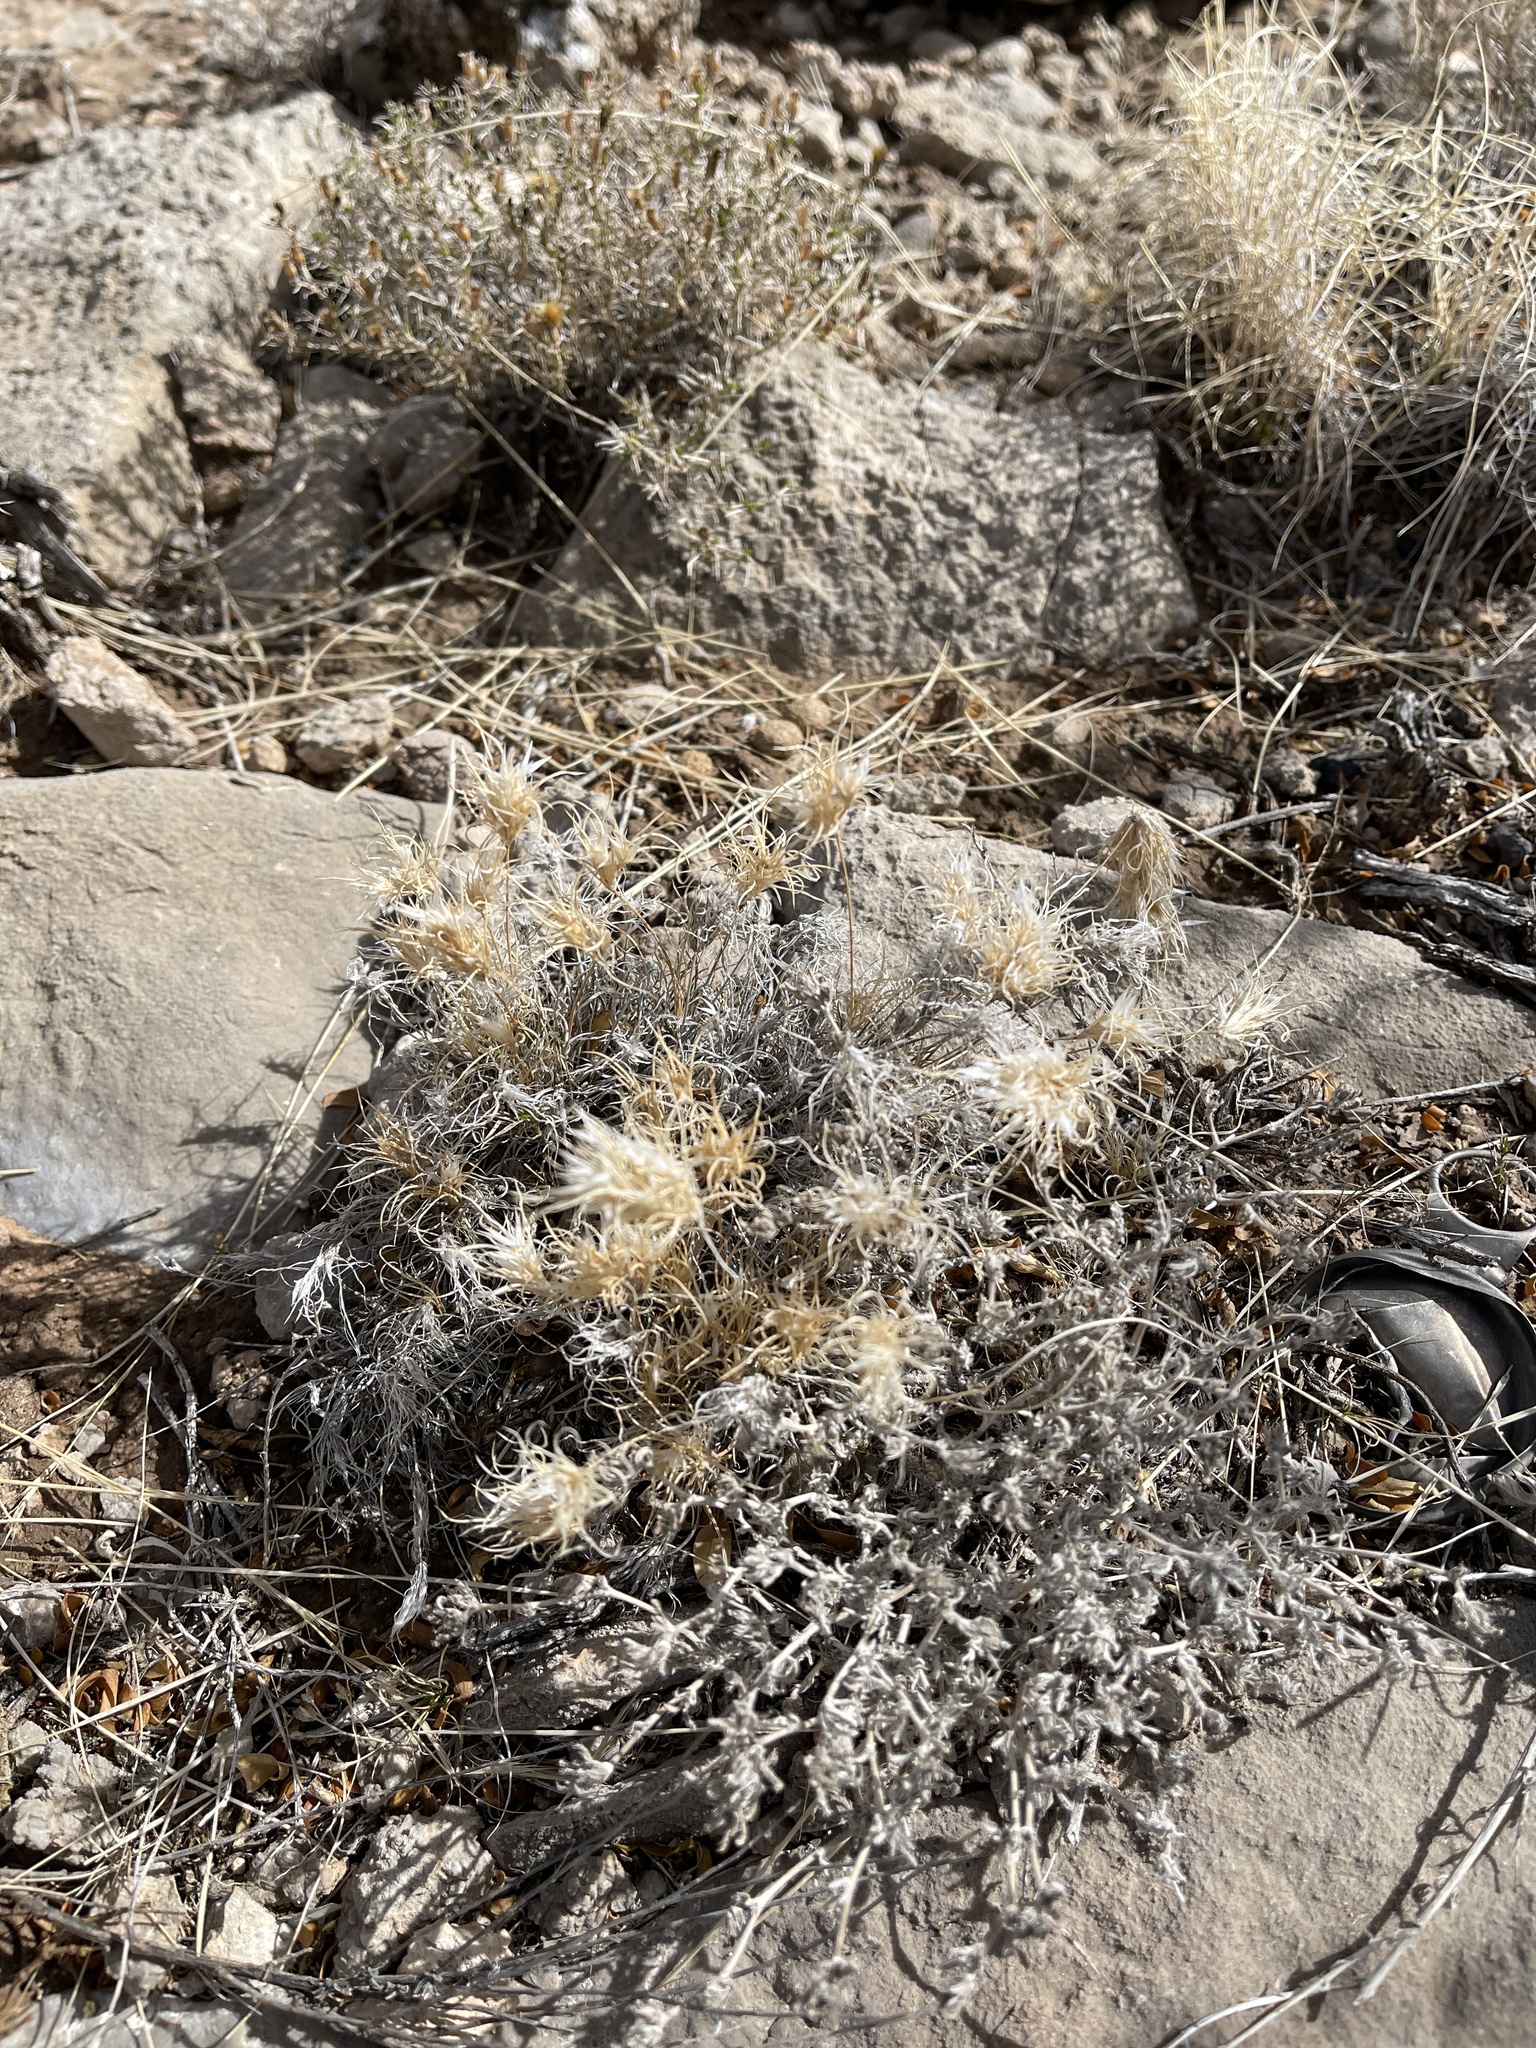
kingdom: Plantae
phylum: Tracheophyta
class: Liliopsida
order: Poales
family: Poaceae
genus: Dasyochloa
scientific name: Dasyochloa pulchella
